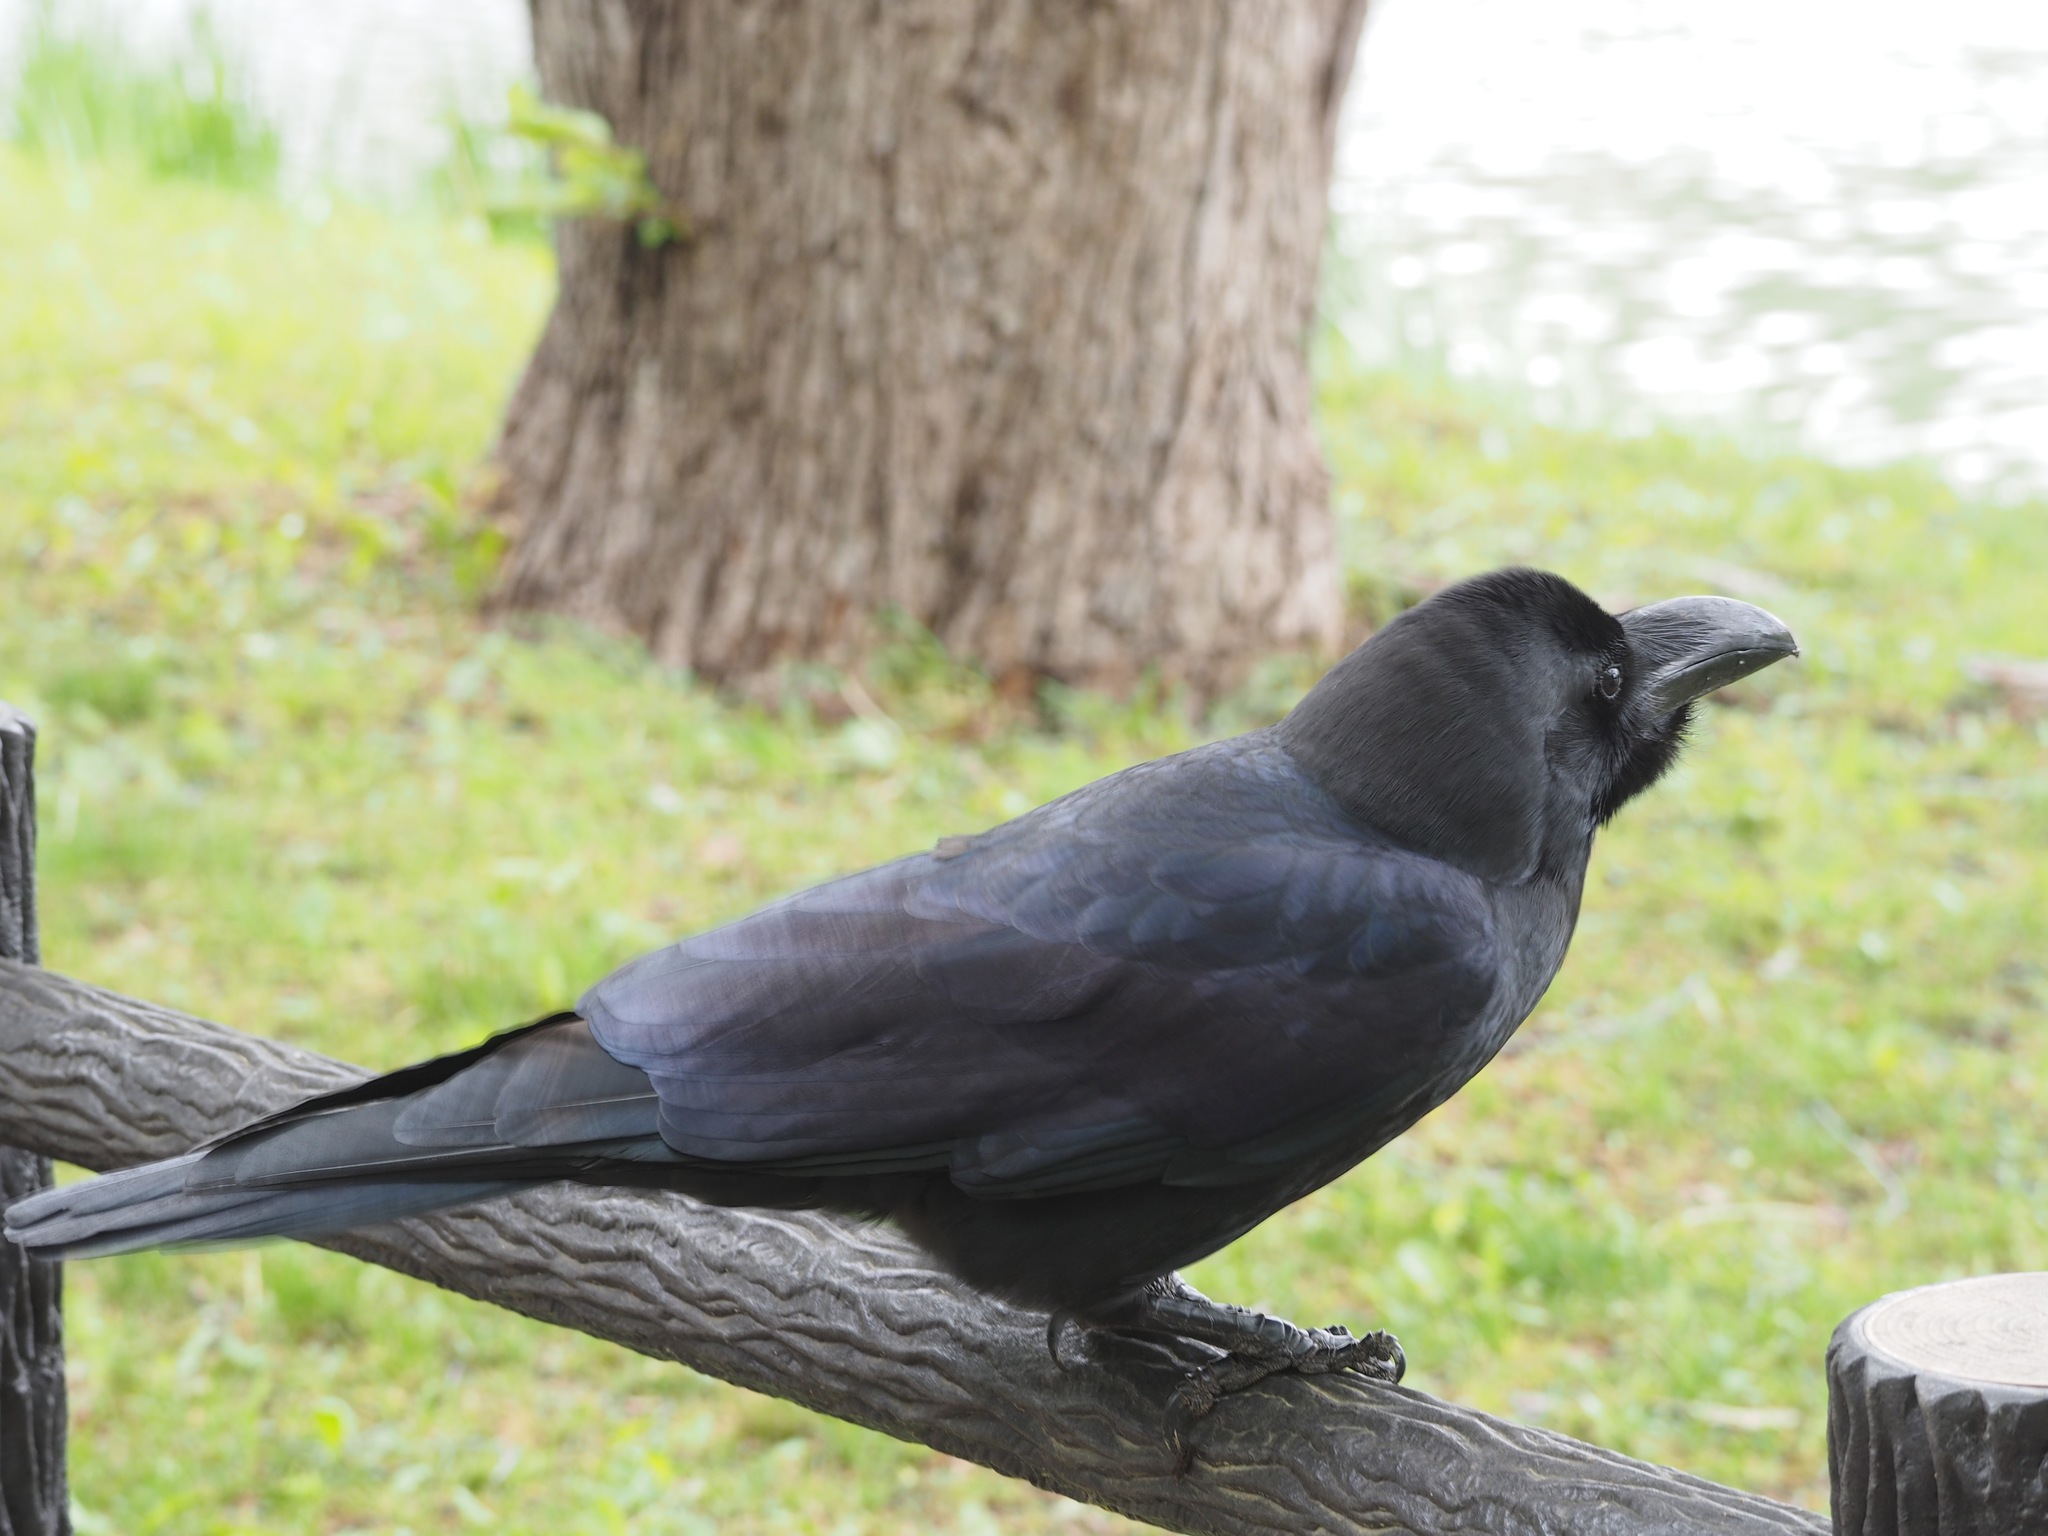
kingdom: Animalia
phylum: Chordata
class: Aves
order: Passeriformes
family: Corvidae
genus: Corvus
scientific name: Corvus macrorhynchos
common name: Large-billed crow
